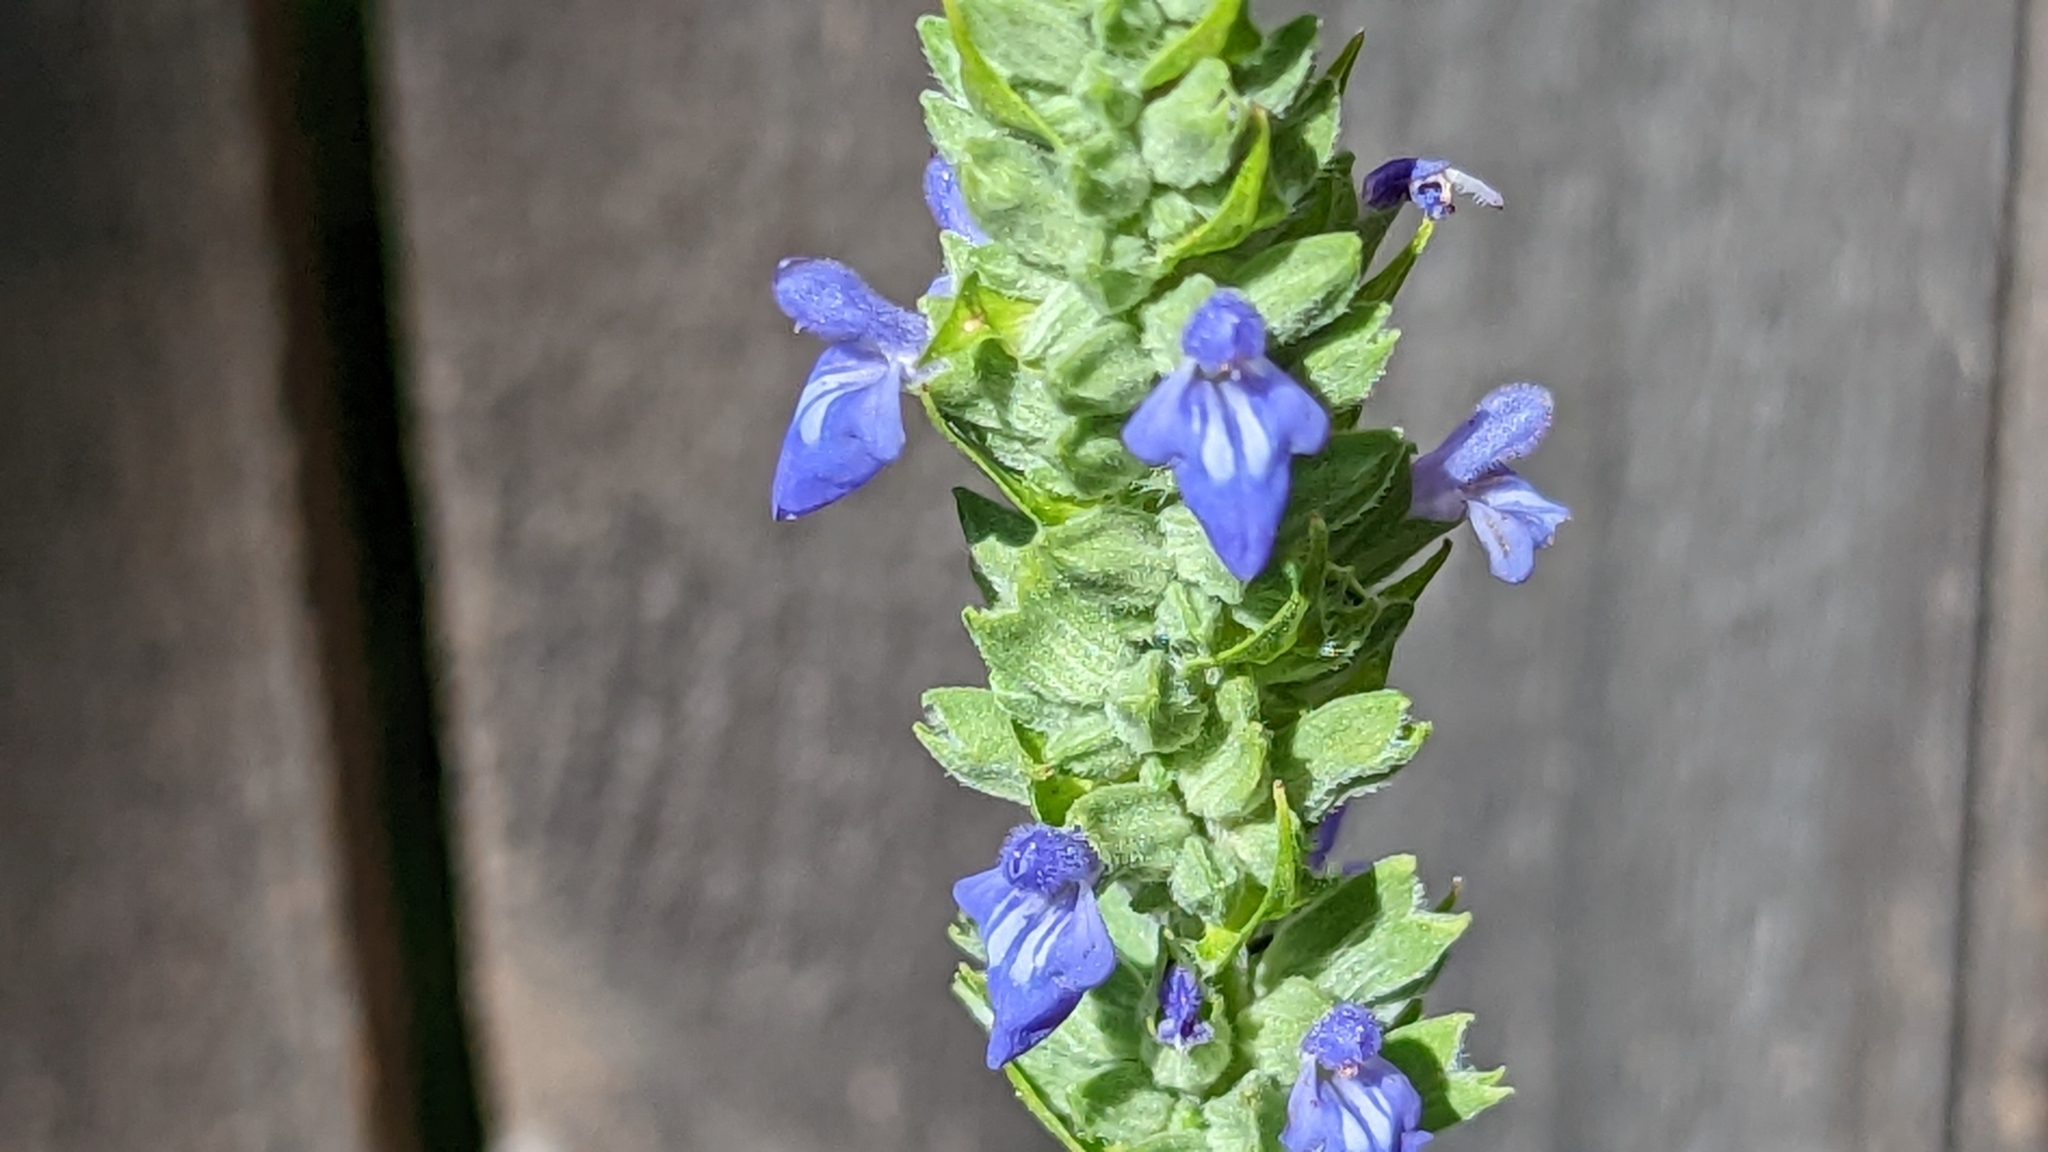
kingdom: Plantae
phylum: Tracheophyta
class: Magnoliopsida
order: Lamiales
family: Lamiaceae
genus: Salvia
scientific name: Salvia hispanica
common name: Chia
